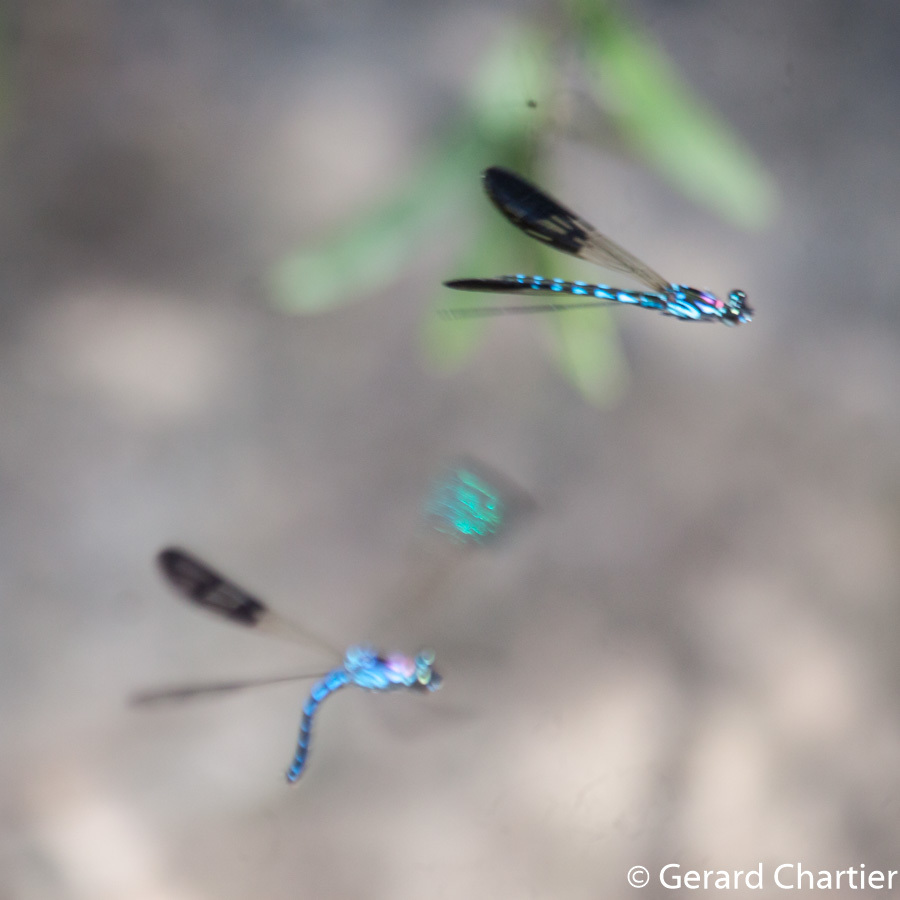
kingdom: Animalia
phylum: Arthropoda
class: Insecta
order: Odonata
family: Chlorocyphidae
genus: Heliocypha
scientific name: Heliocypha perforata
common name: Common blue jewel
